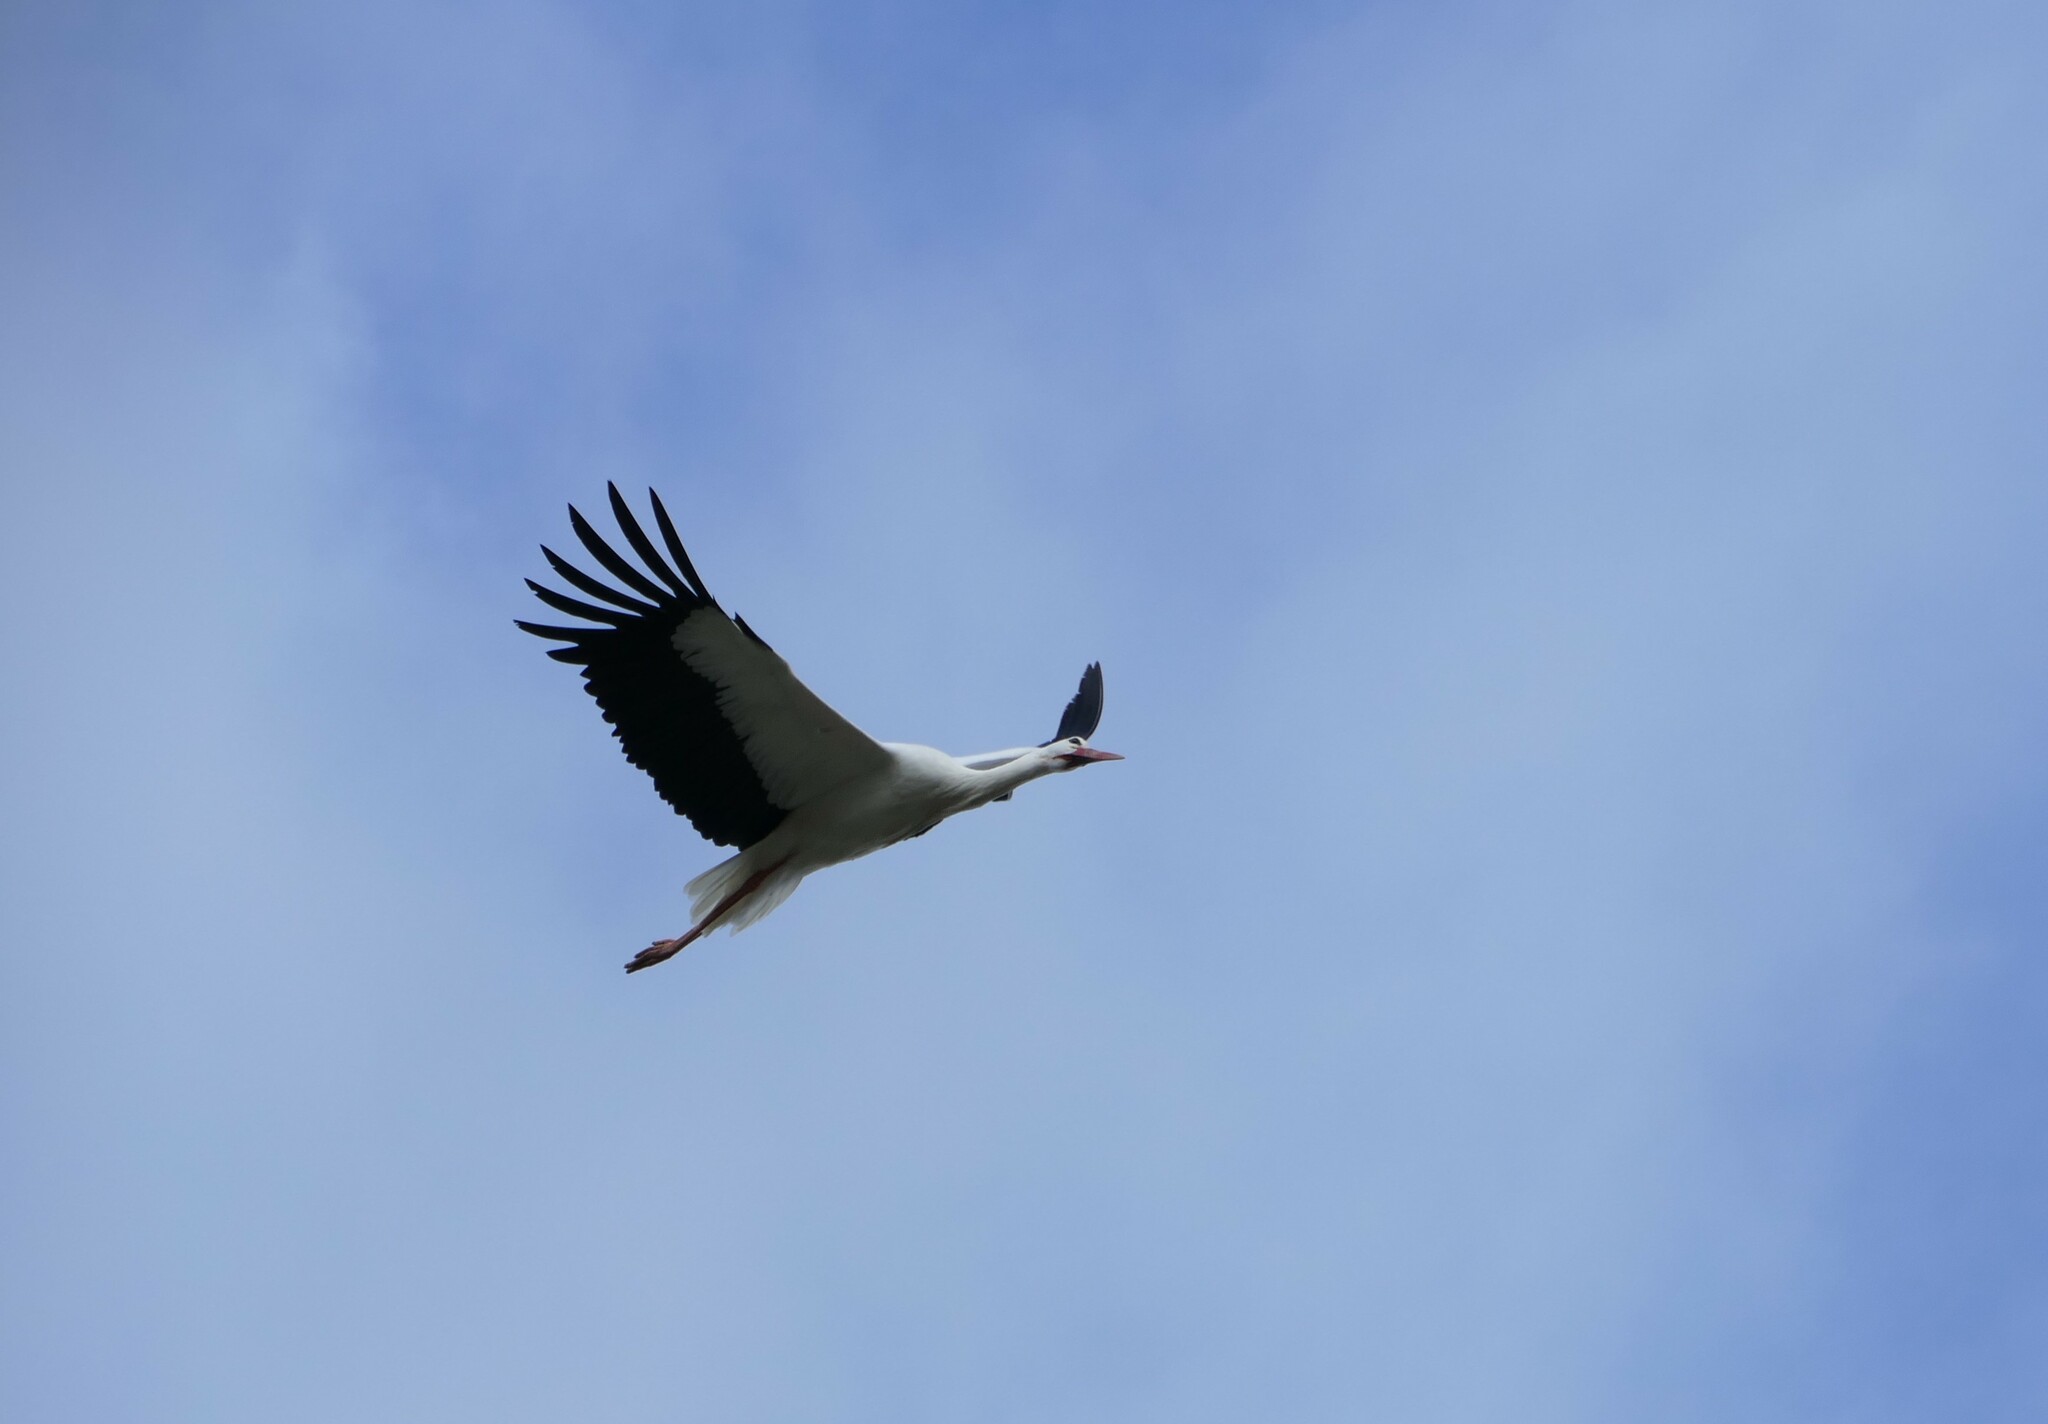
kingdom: Animalia
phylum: Chordata
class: Aves
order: Ciconiiformes
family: Ciconiidae
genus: Ciconia
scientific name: Ciconia ciconia
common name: White stork
